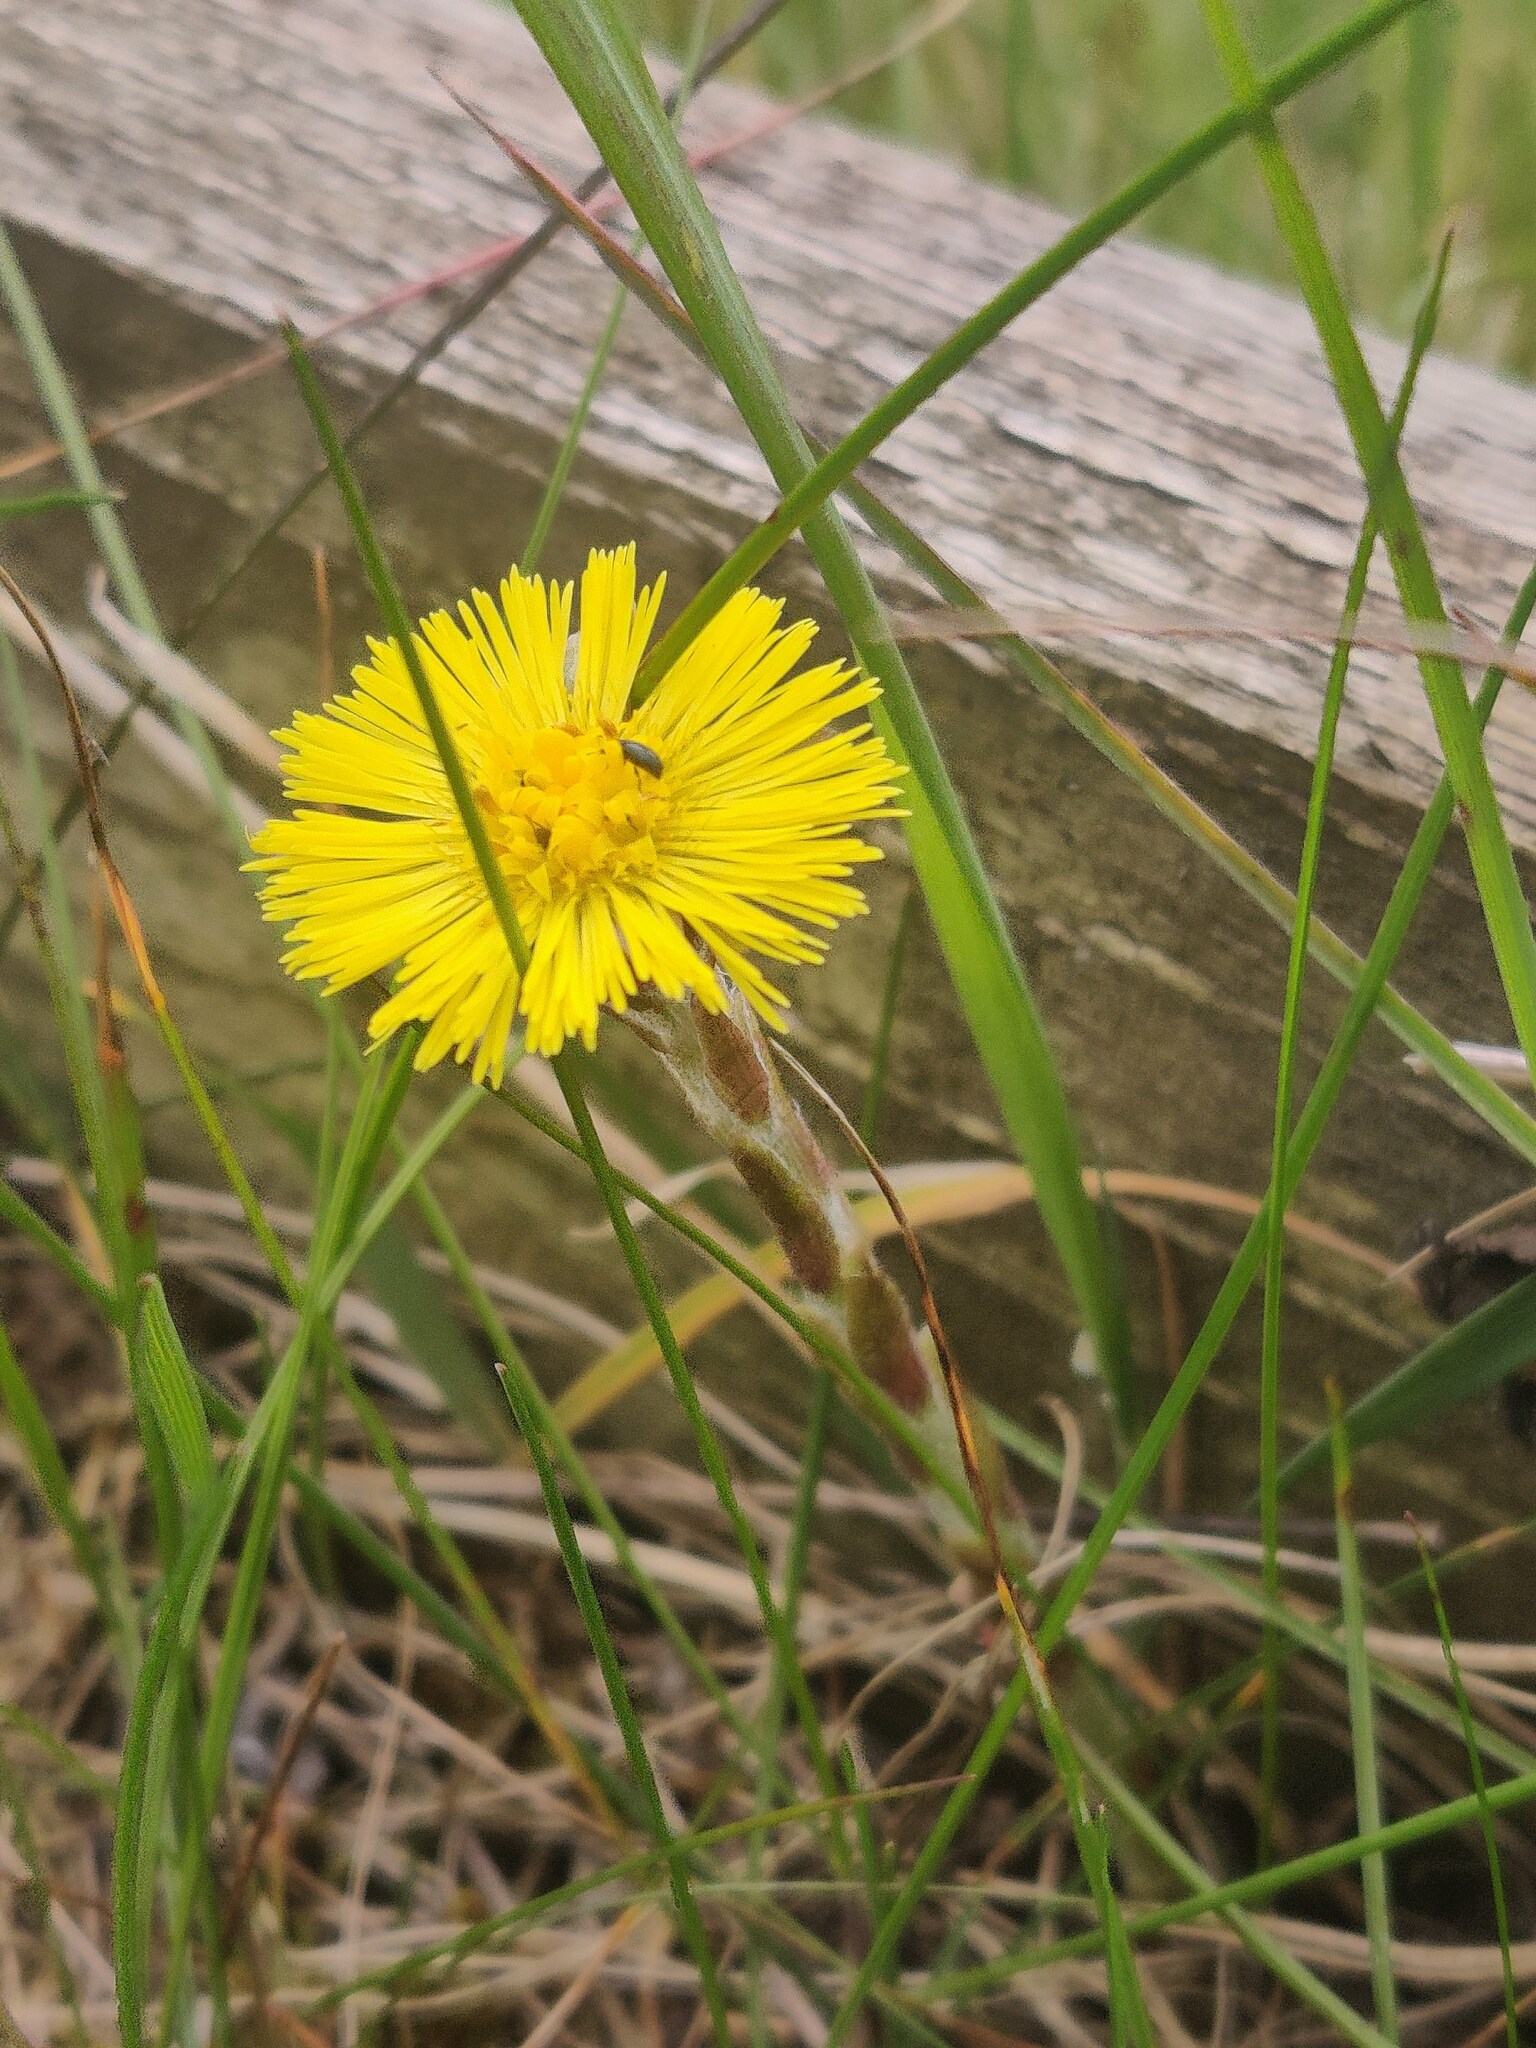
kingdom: Plantae
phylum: Tracheophyta
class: Magnoliopsida
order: Asterales
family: Asteraceae
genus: Tussilago
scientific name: Tussilago farfara
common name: Coltsfoot
